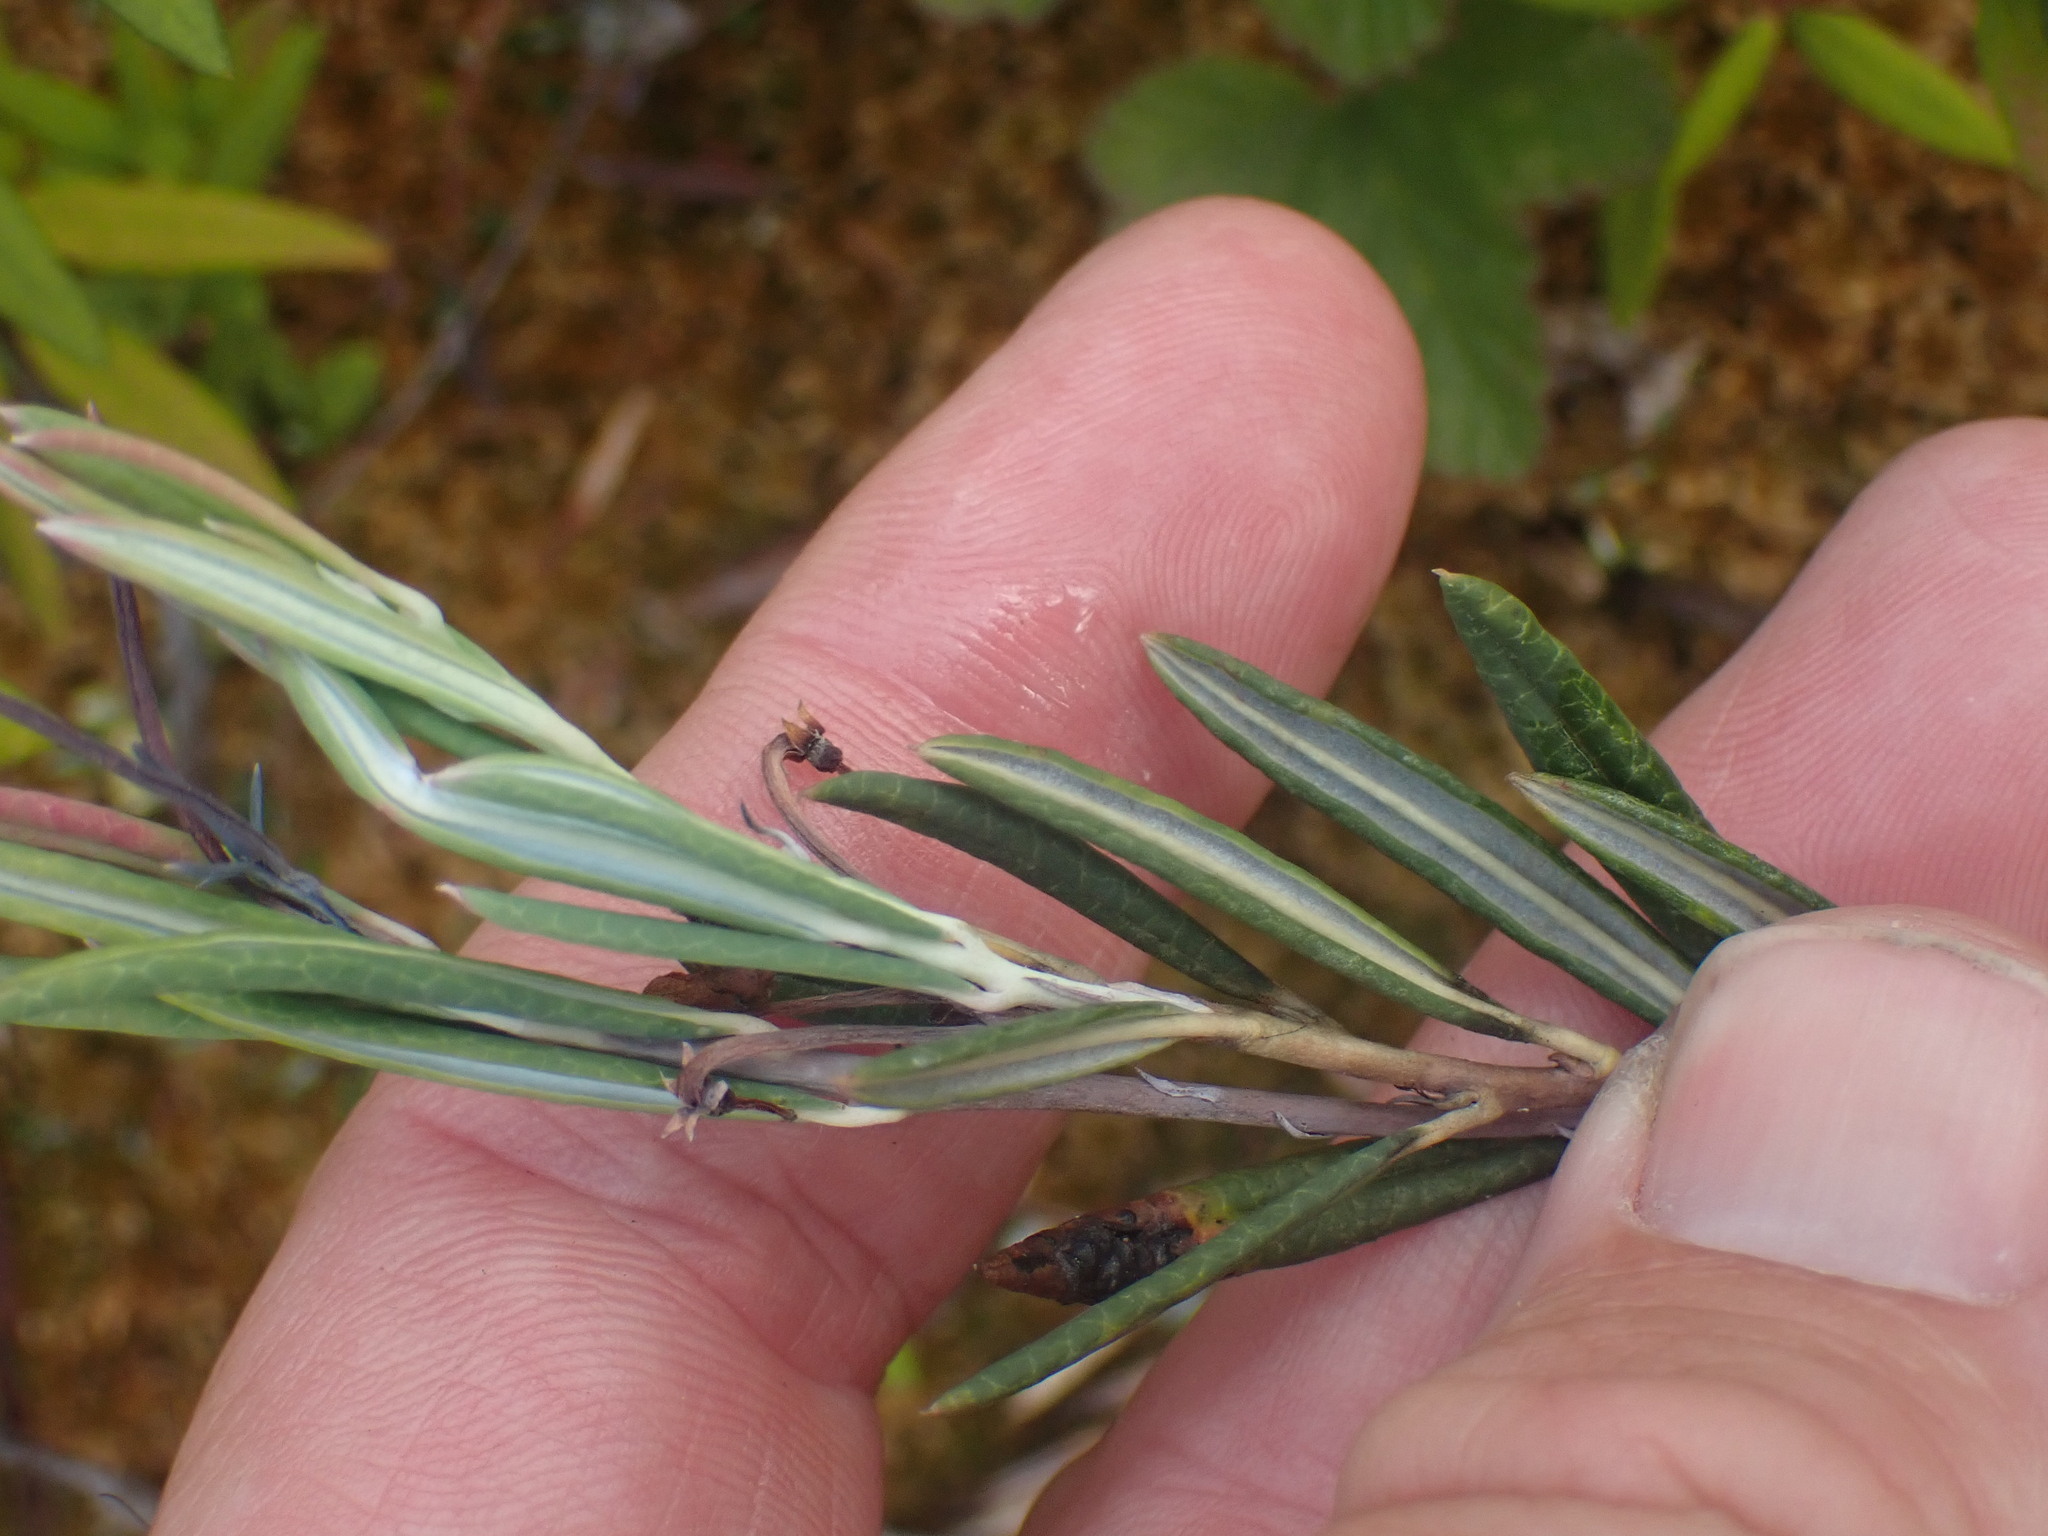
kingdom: Plantae
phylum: Tracheophyta
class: Magnoliopsida
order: Ericales
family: Ericaceae
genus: Andromeda
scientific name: Andromeda polifolia
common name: Bog-rosemary
